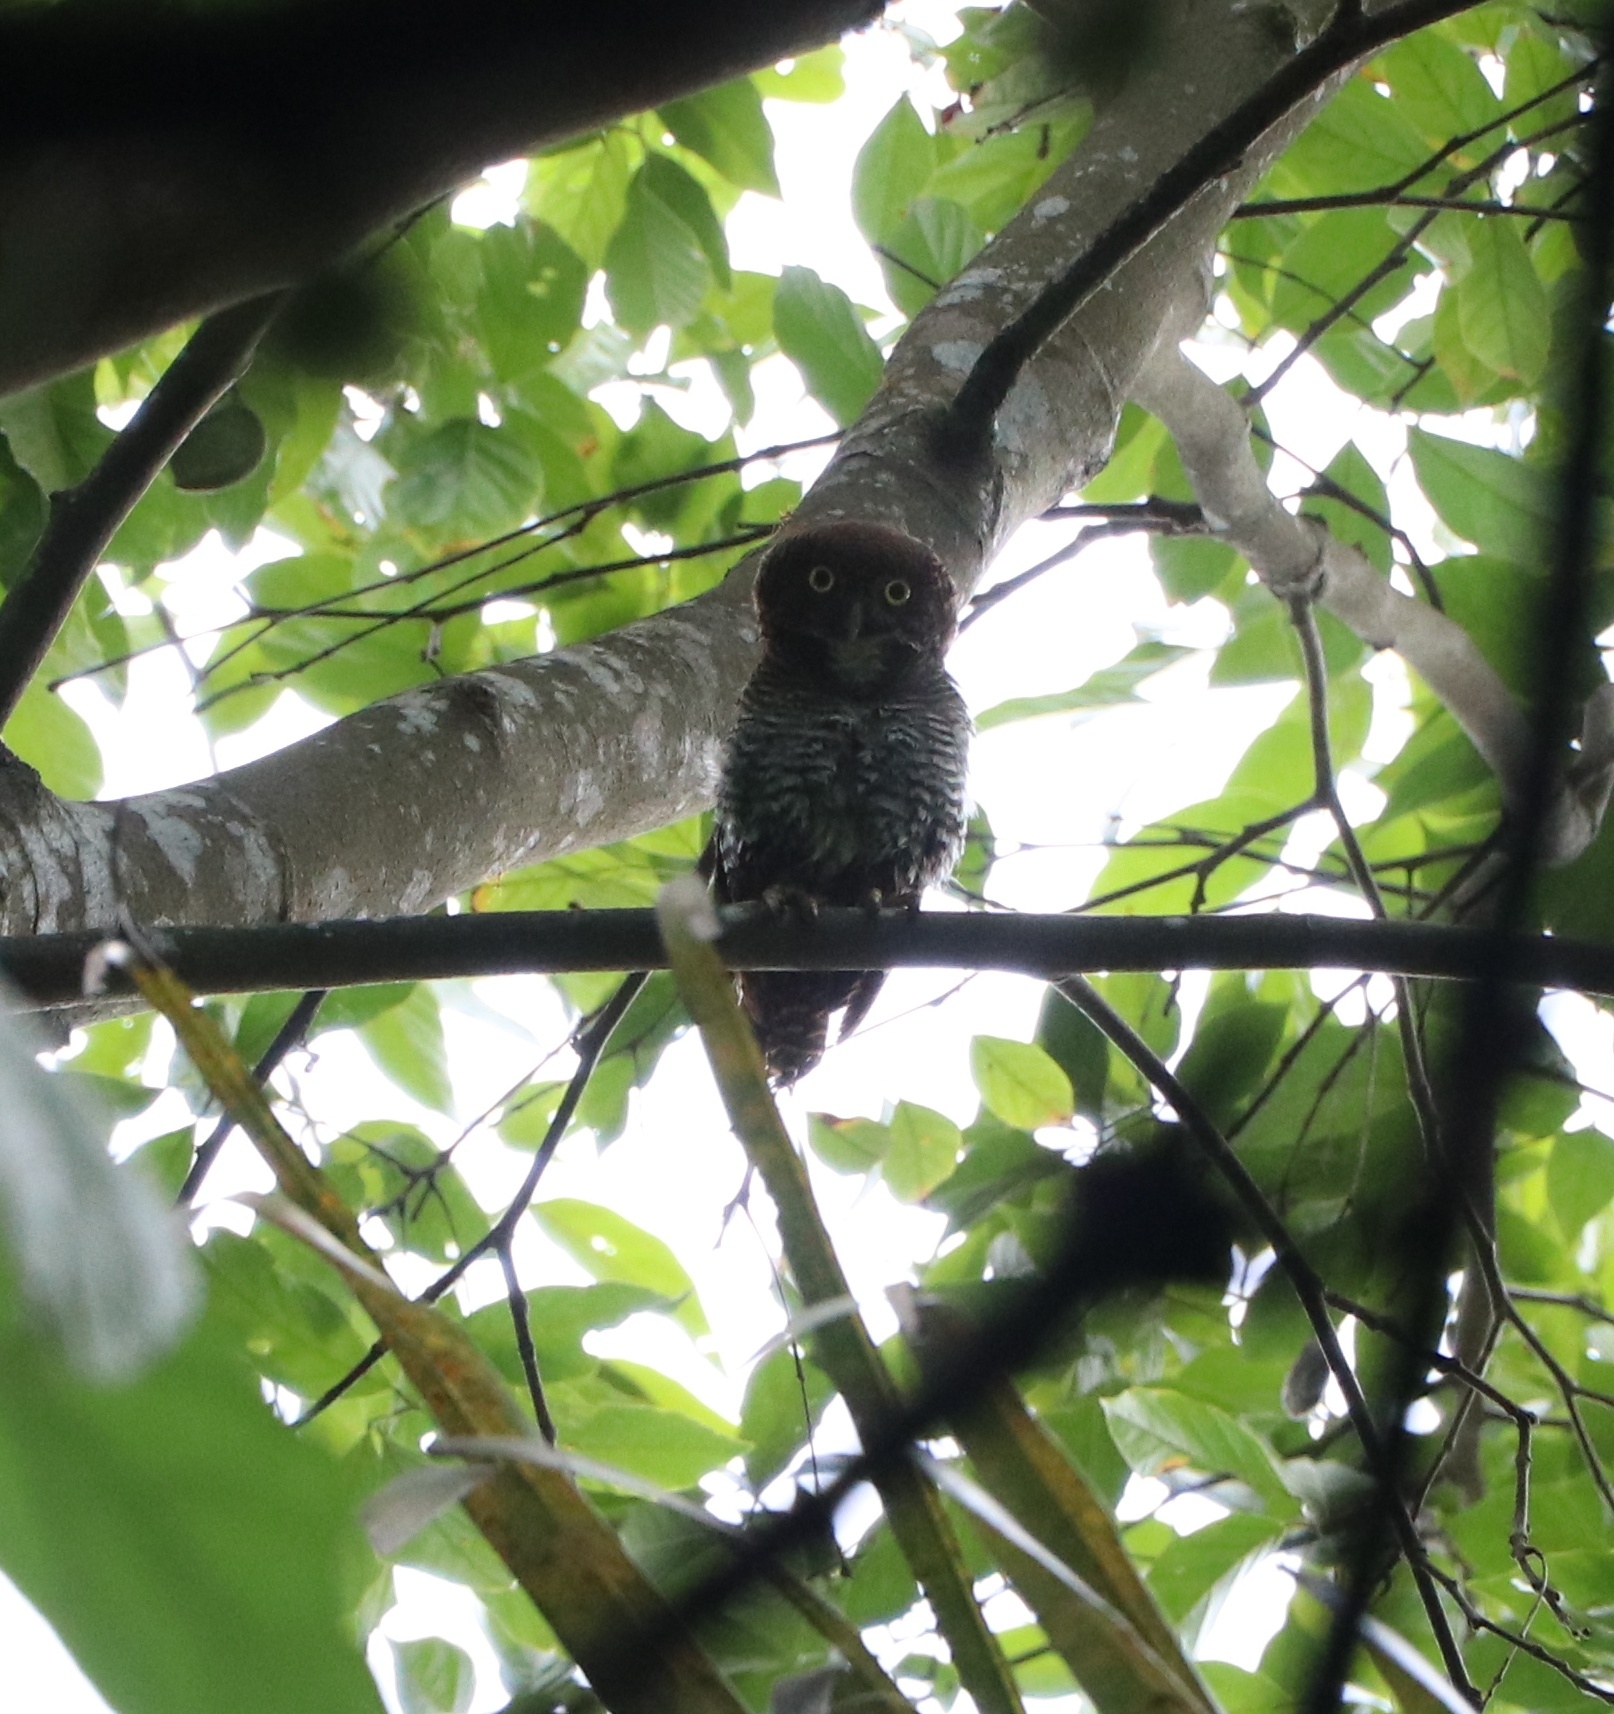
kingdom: Animalia
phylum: Chordata
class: Aves
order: Strigiformes
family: Strigidae
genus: Glaucidium
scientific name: Glaucidium radiatum
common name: Jungle owlet
